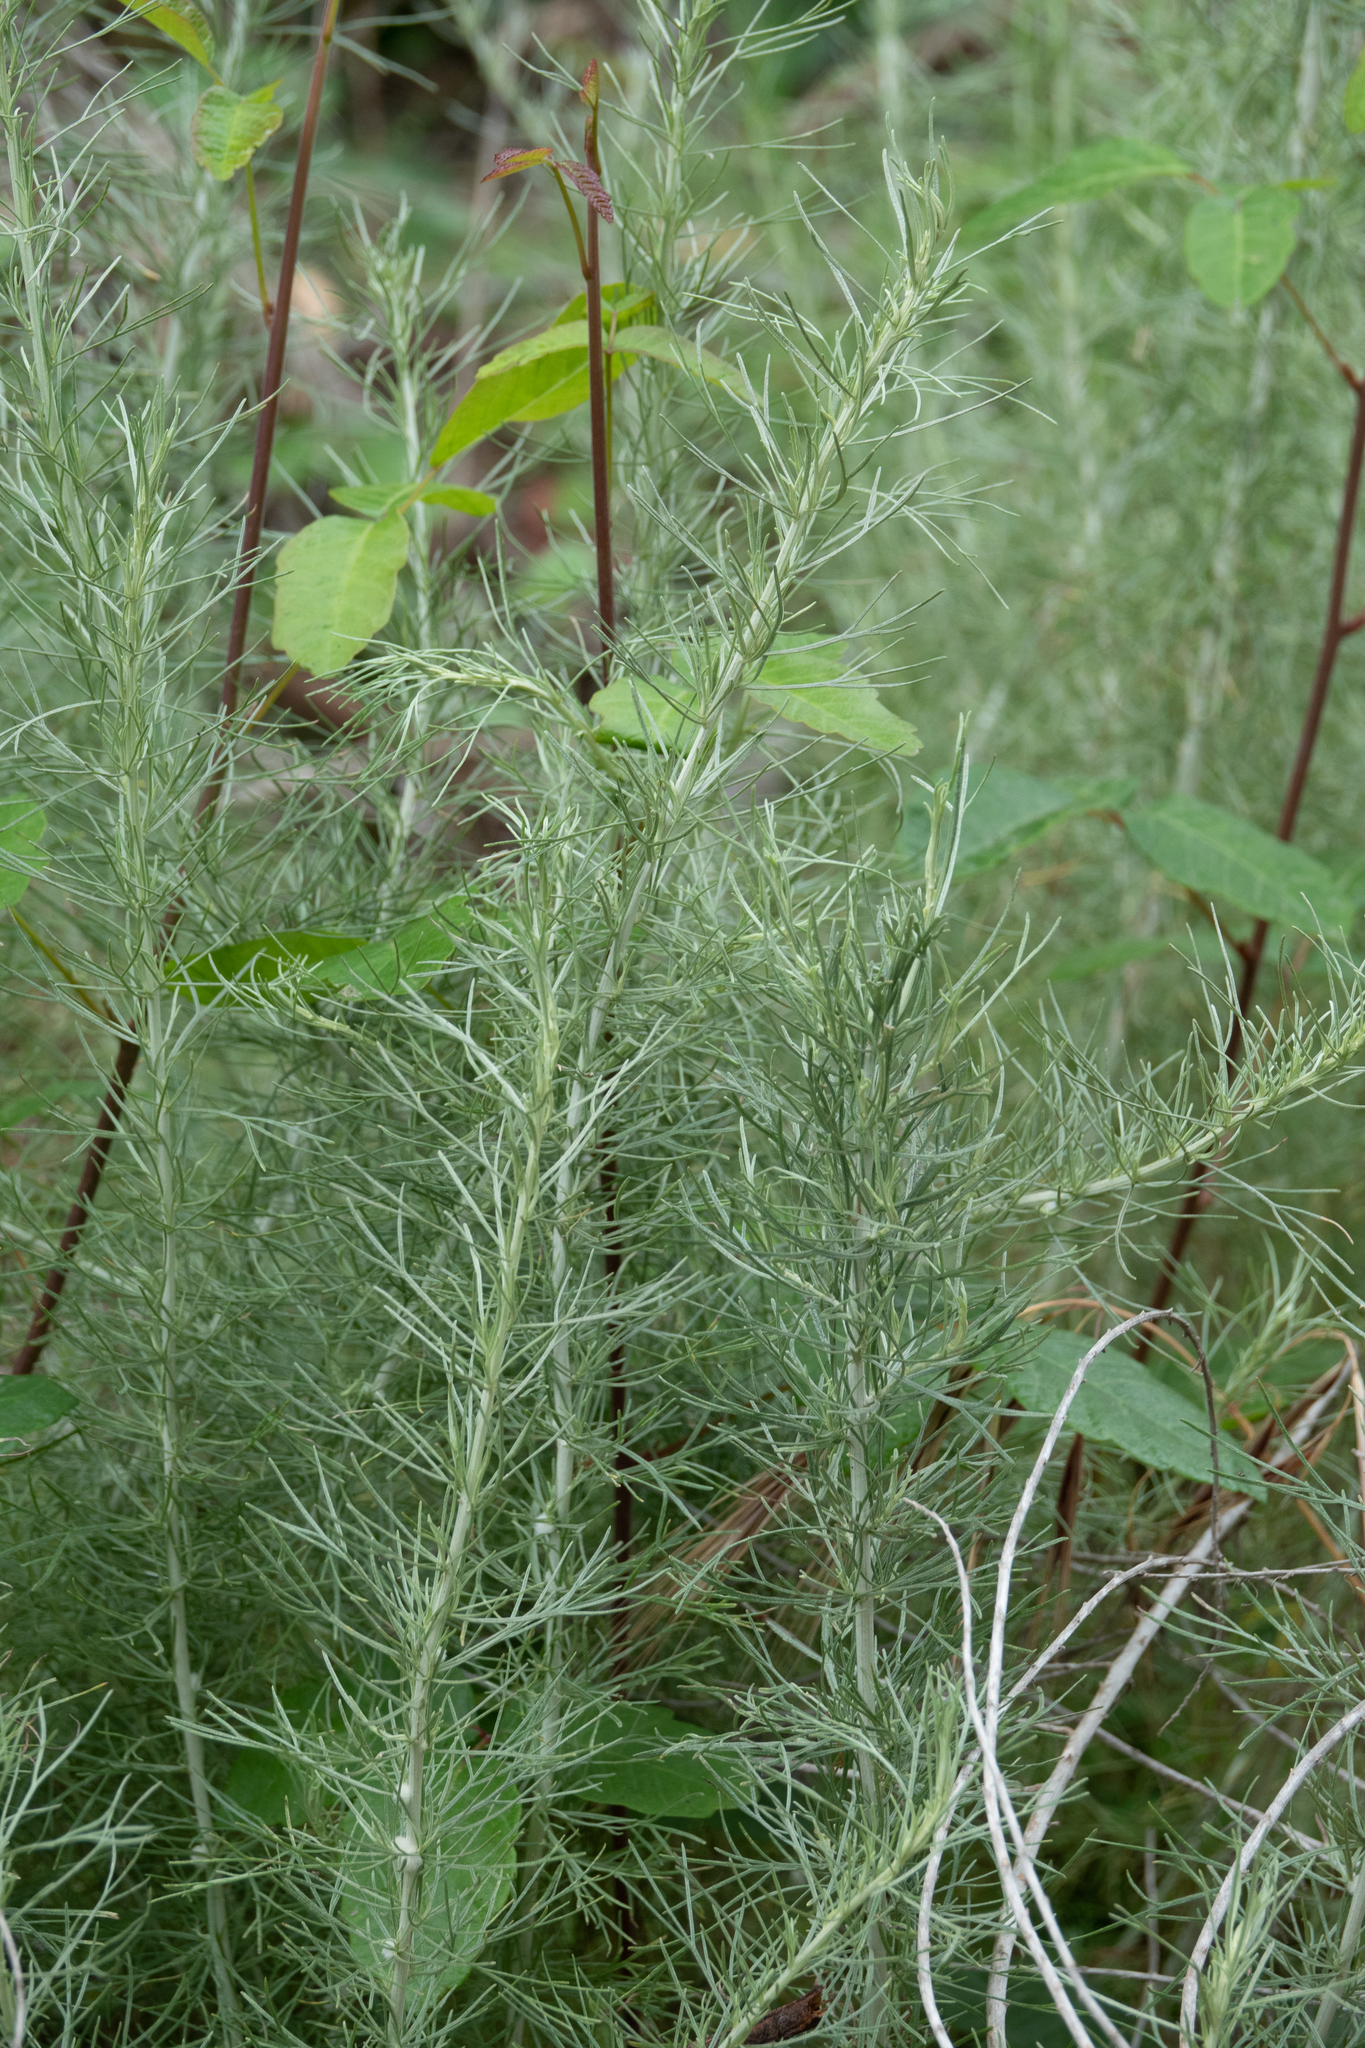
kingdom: Plantae
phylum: Tracheophyta
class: Magnoliopsida
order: Asterales
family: Asteraceae
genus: Artemisia
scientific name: Artemisia californica
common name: California sagebrush
